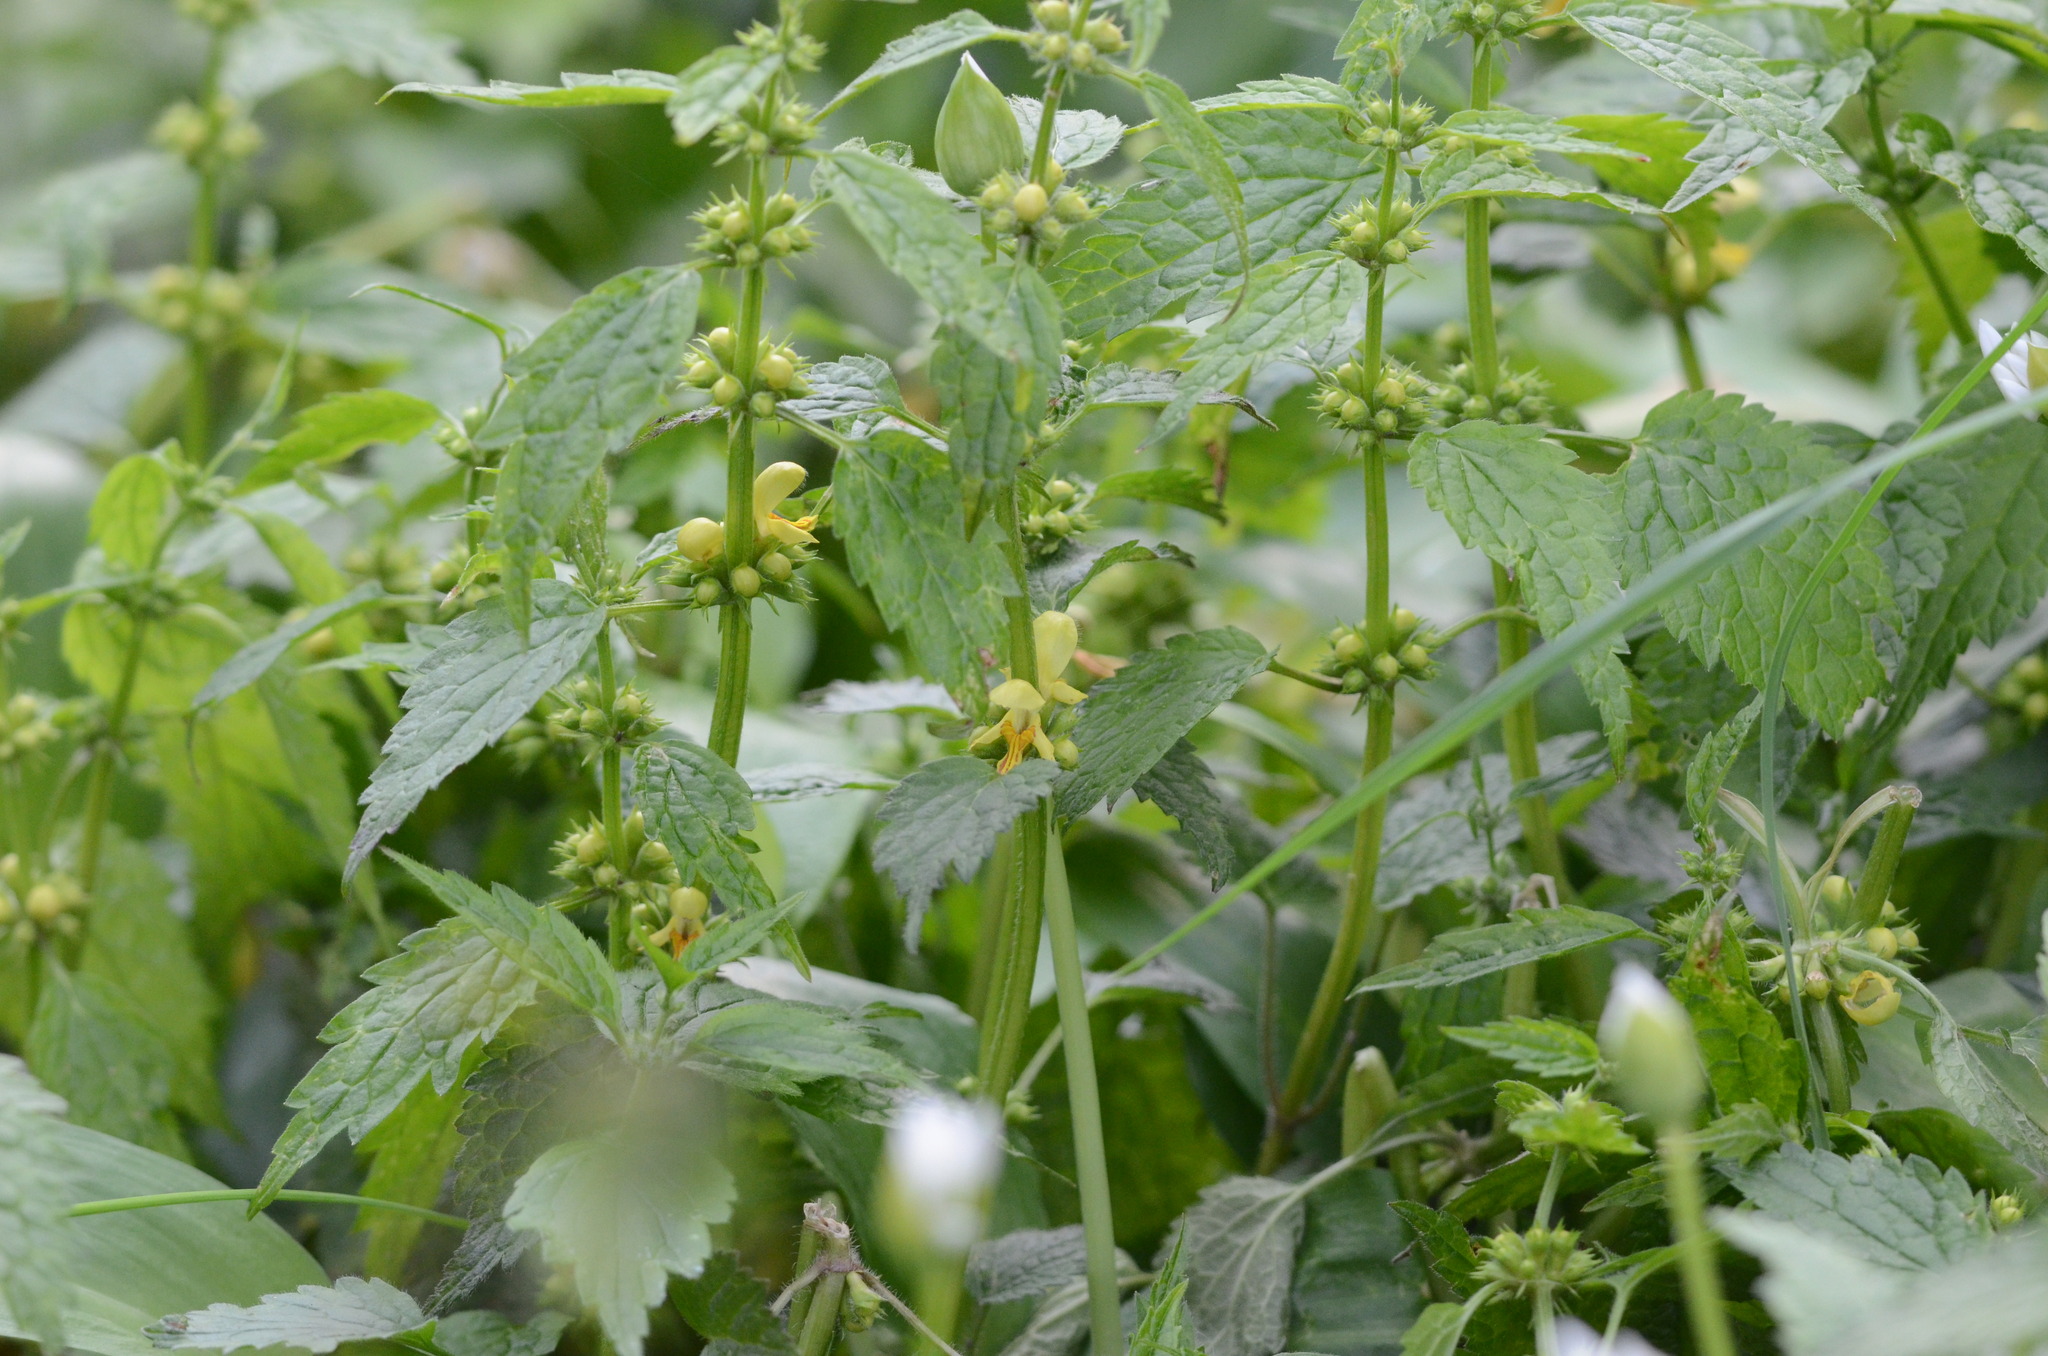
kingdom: Plantae
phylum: Tracheophyta
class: Magnoliopsida
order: Lamiales
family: Lamiaceae
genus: Lamium
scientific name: Lamium galeobdolon
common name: Yellow archangel
